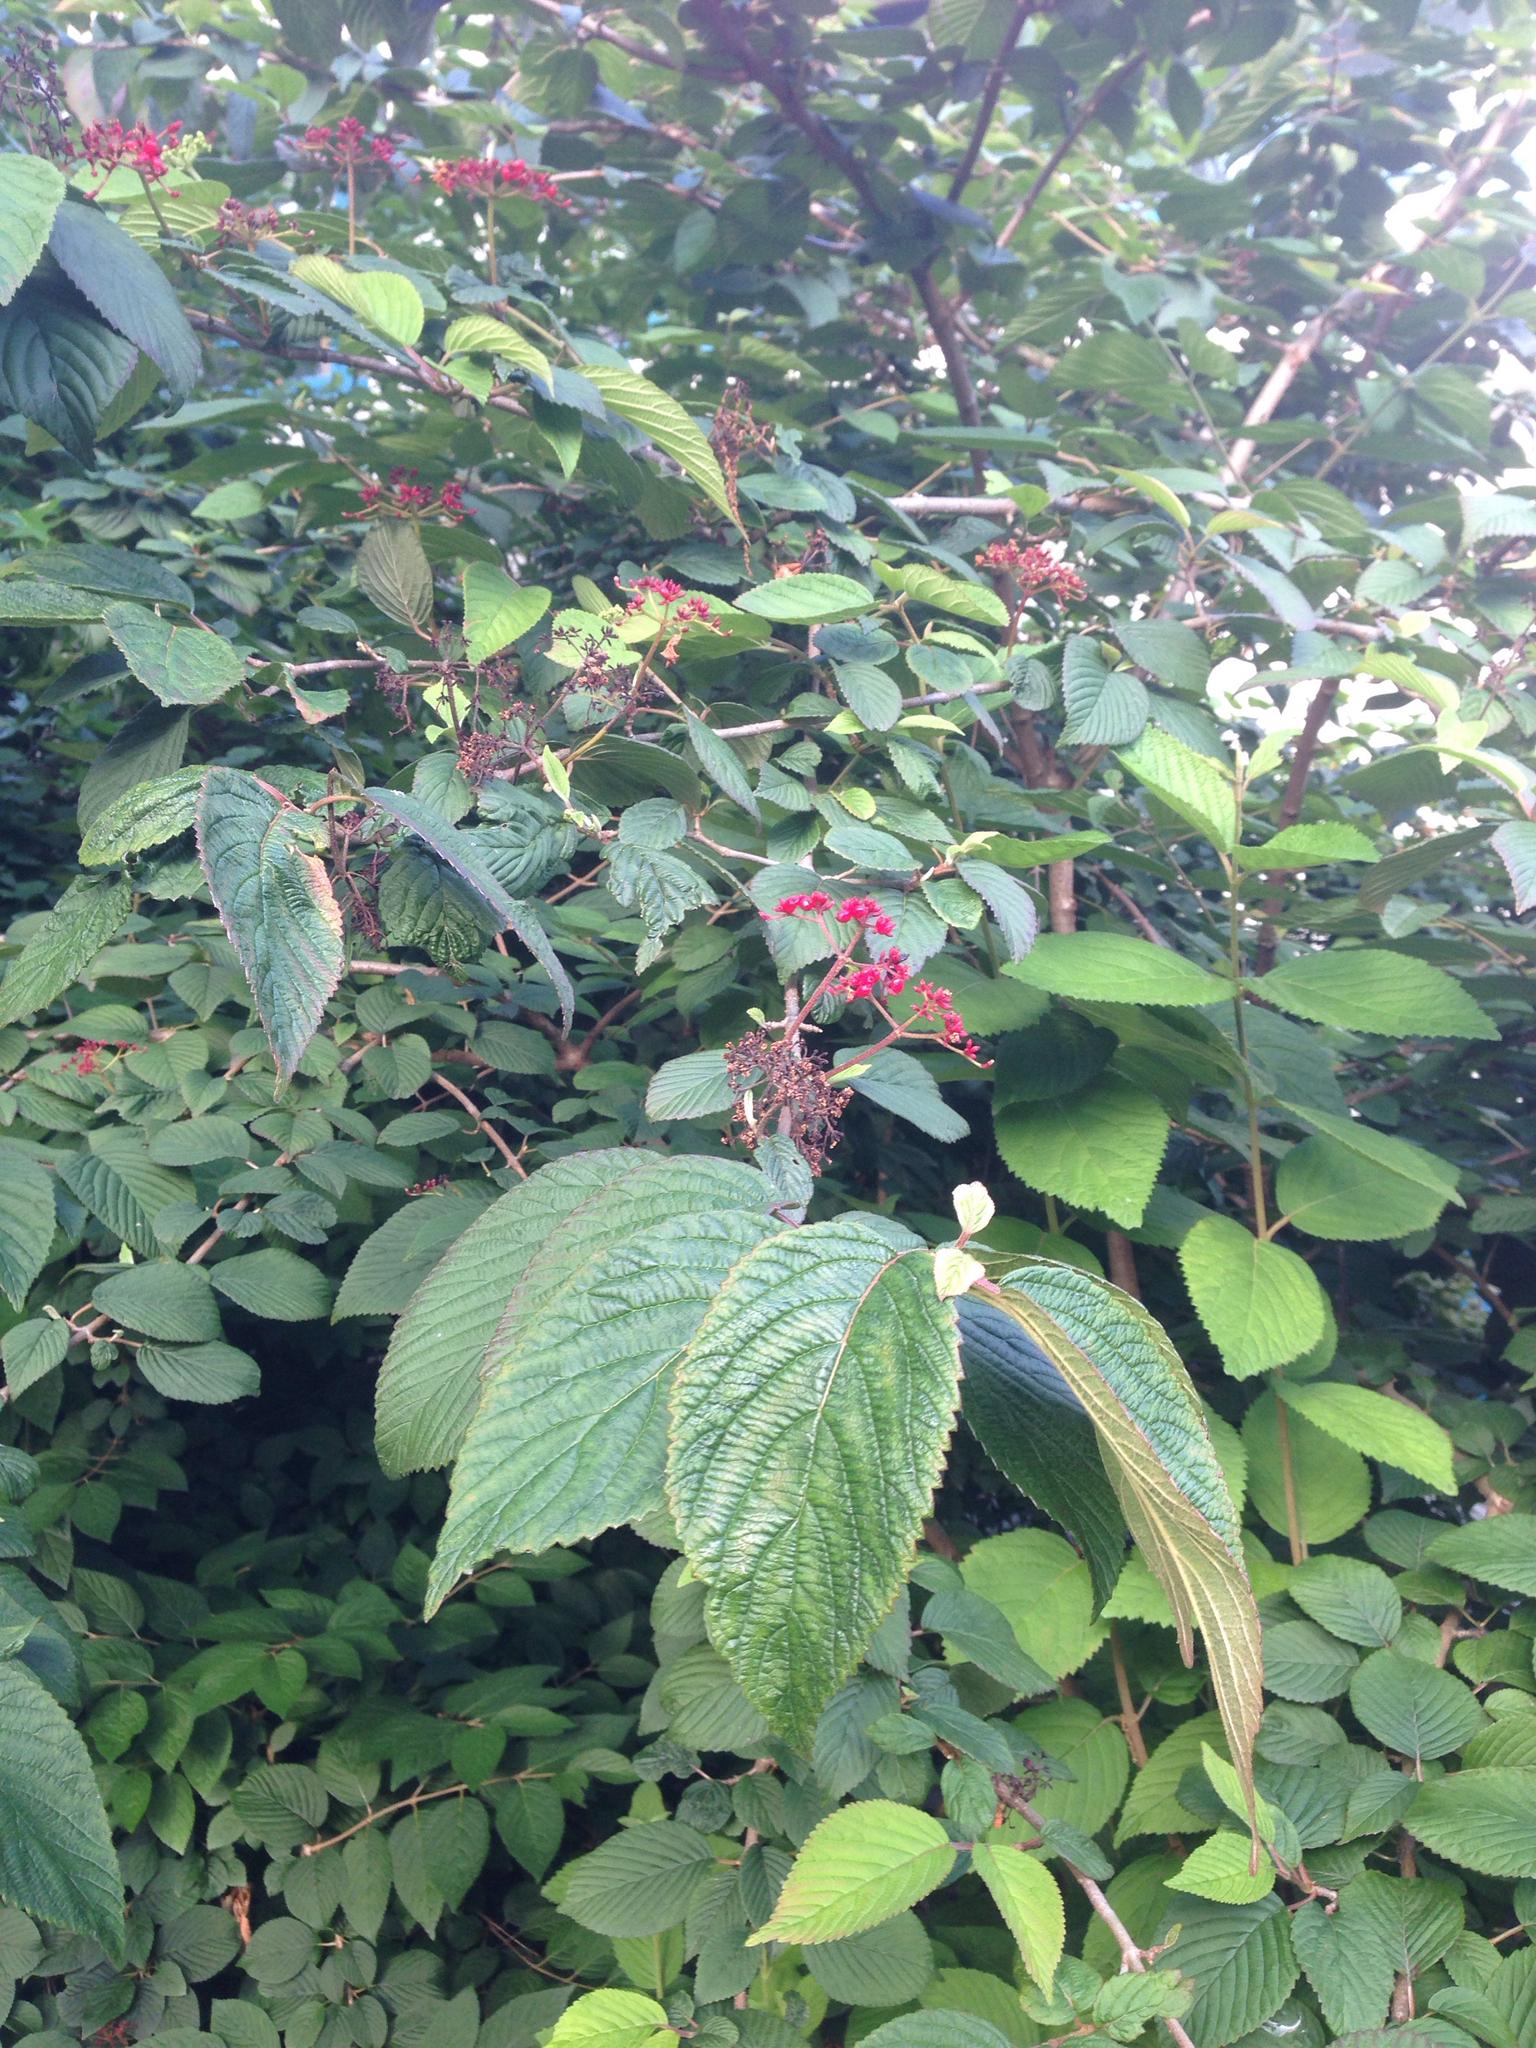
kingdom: Plantae
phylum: Tracheophyta
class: Magnoliopsida
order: Dipsacales
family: Viburnaceae
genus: Viburnum
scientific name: Viburnum plicatum
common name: Japanese snowball
